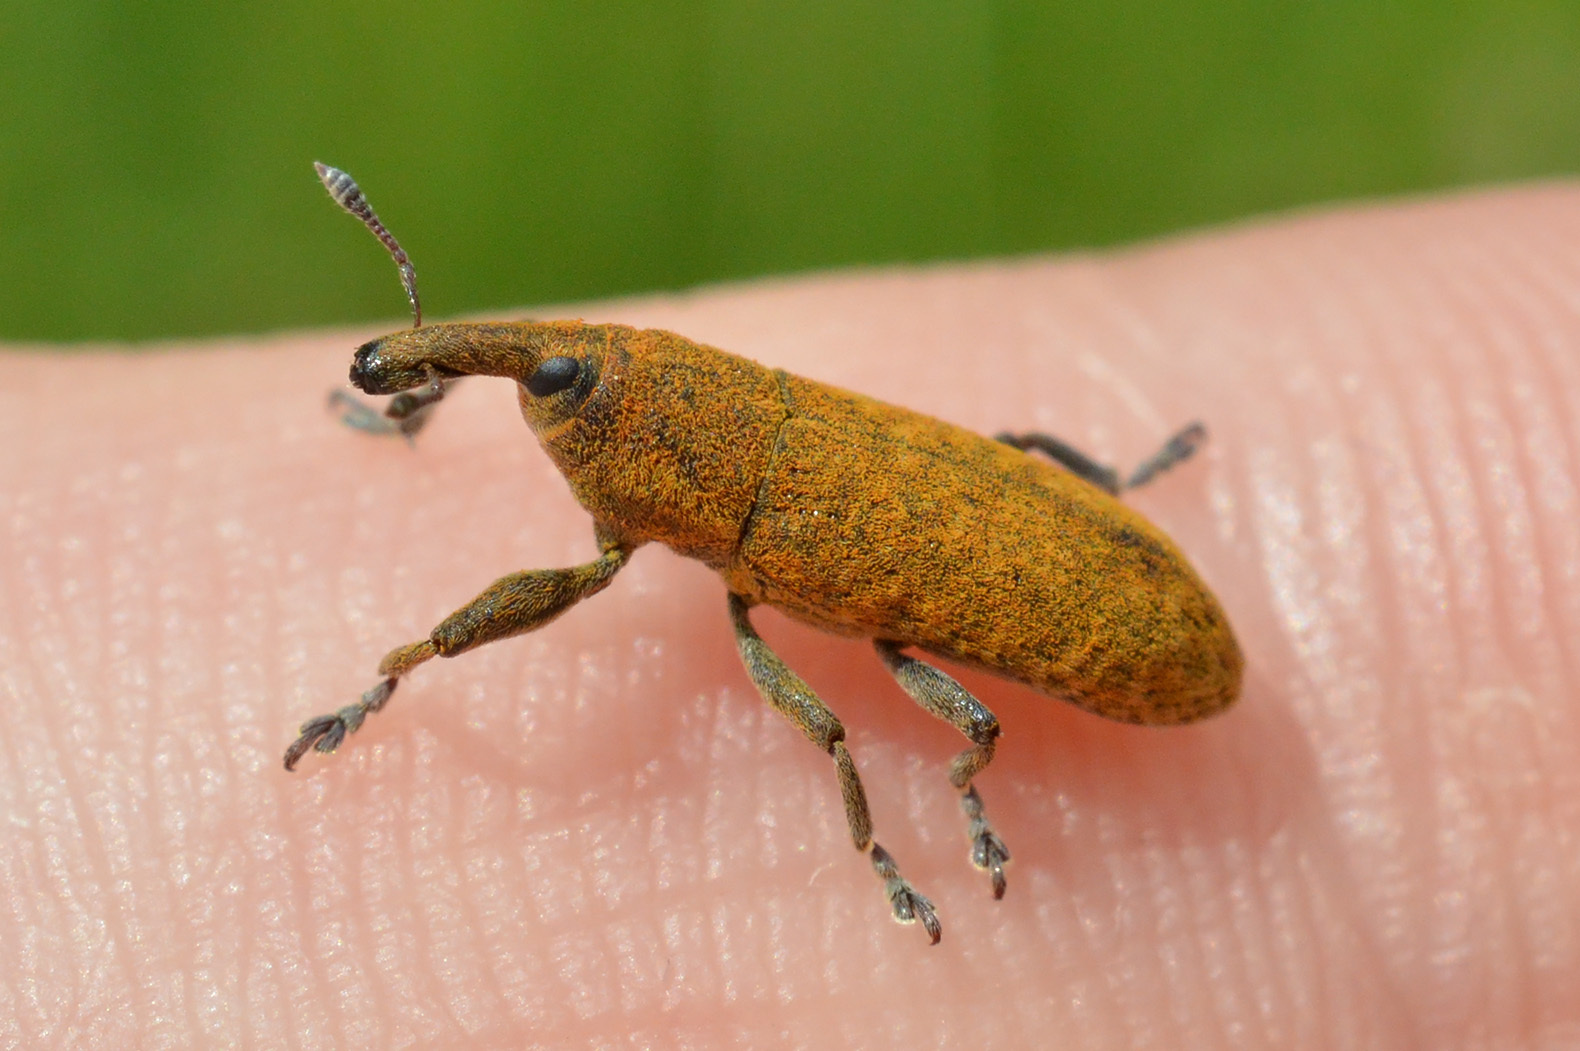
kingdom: Animalia
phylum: Arthropoda
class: Insecta
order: Coleoptera
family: Curculionidae
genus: Lixus
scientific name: Lixus bardanae
